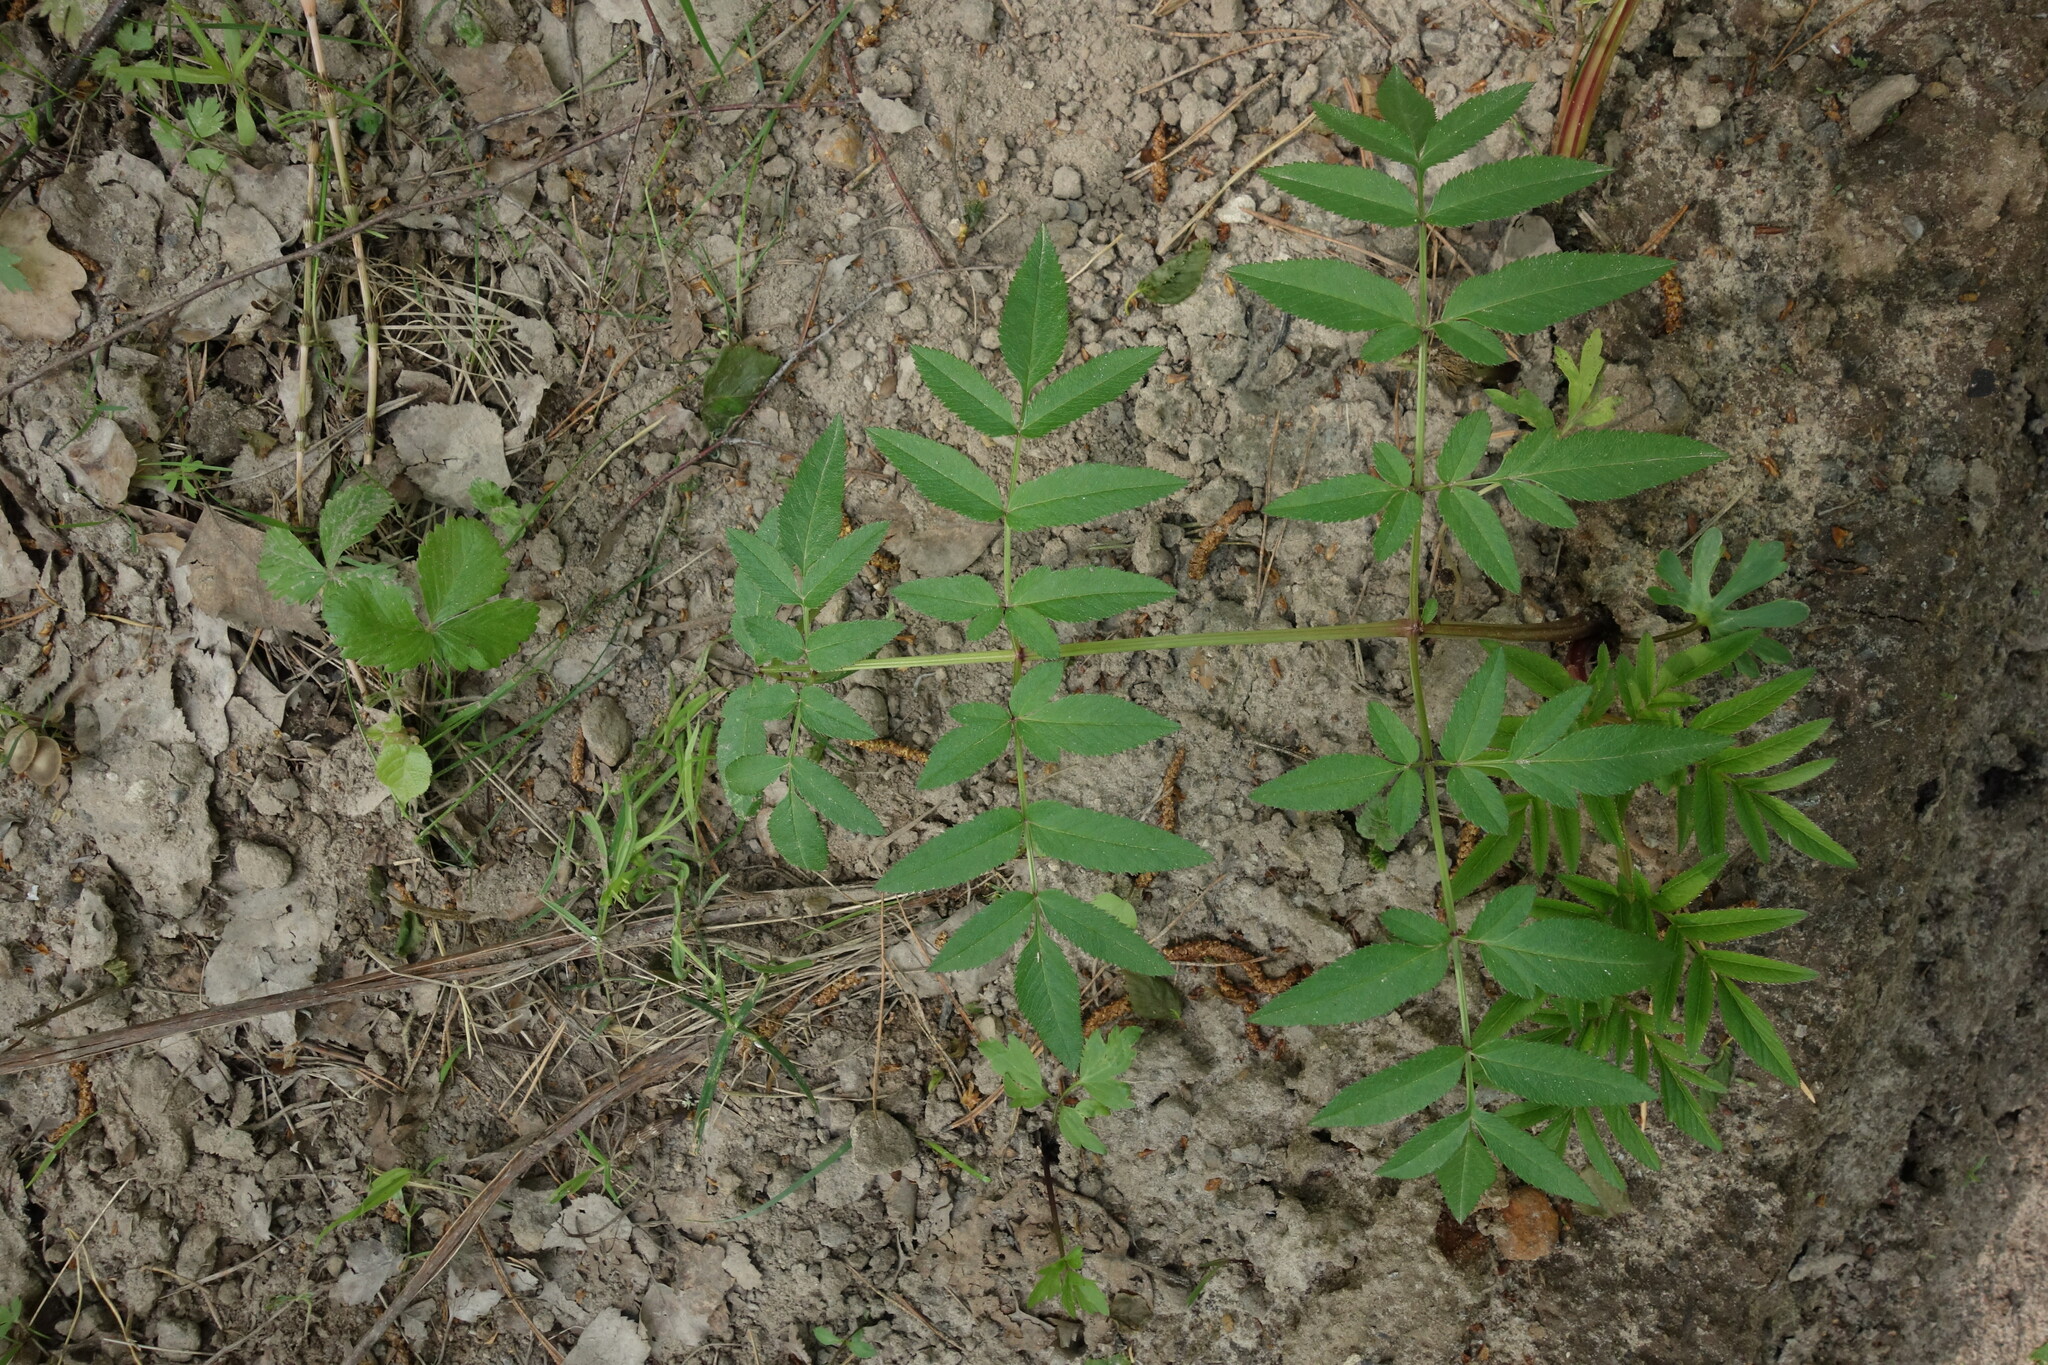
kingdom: Plantae
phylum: Tracheophyta
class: Magnoliopsida
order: Apiales
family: Apiaceae
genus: Angelica
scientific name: Angelica sylvestris
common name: Wild angelica
